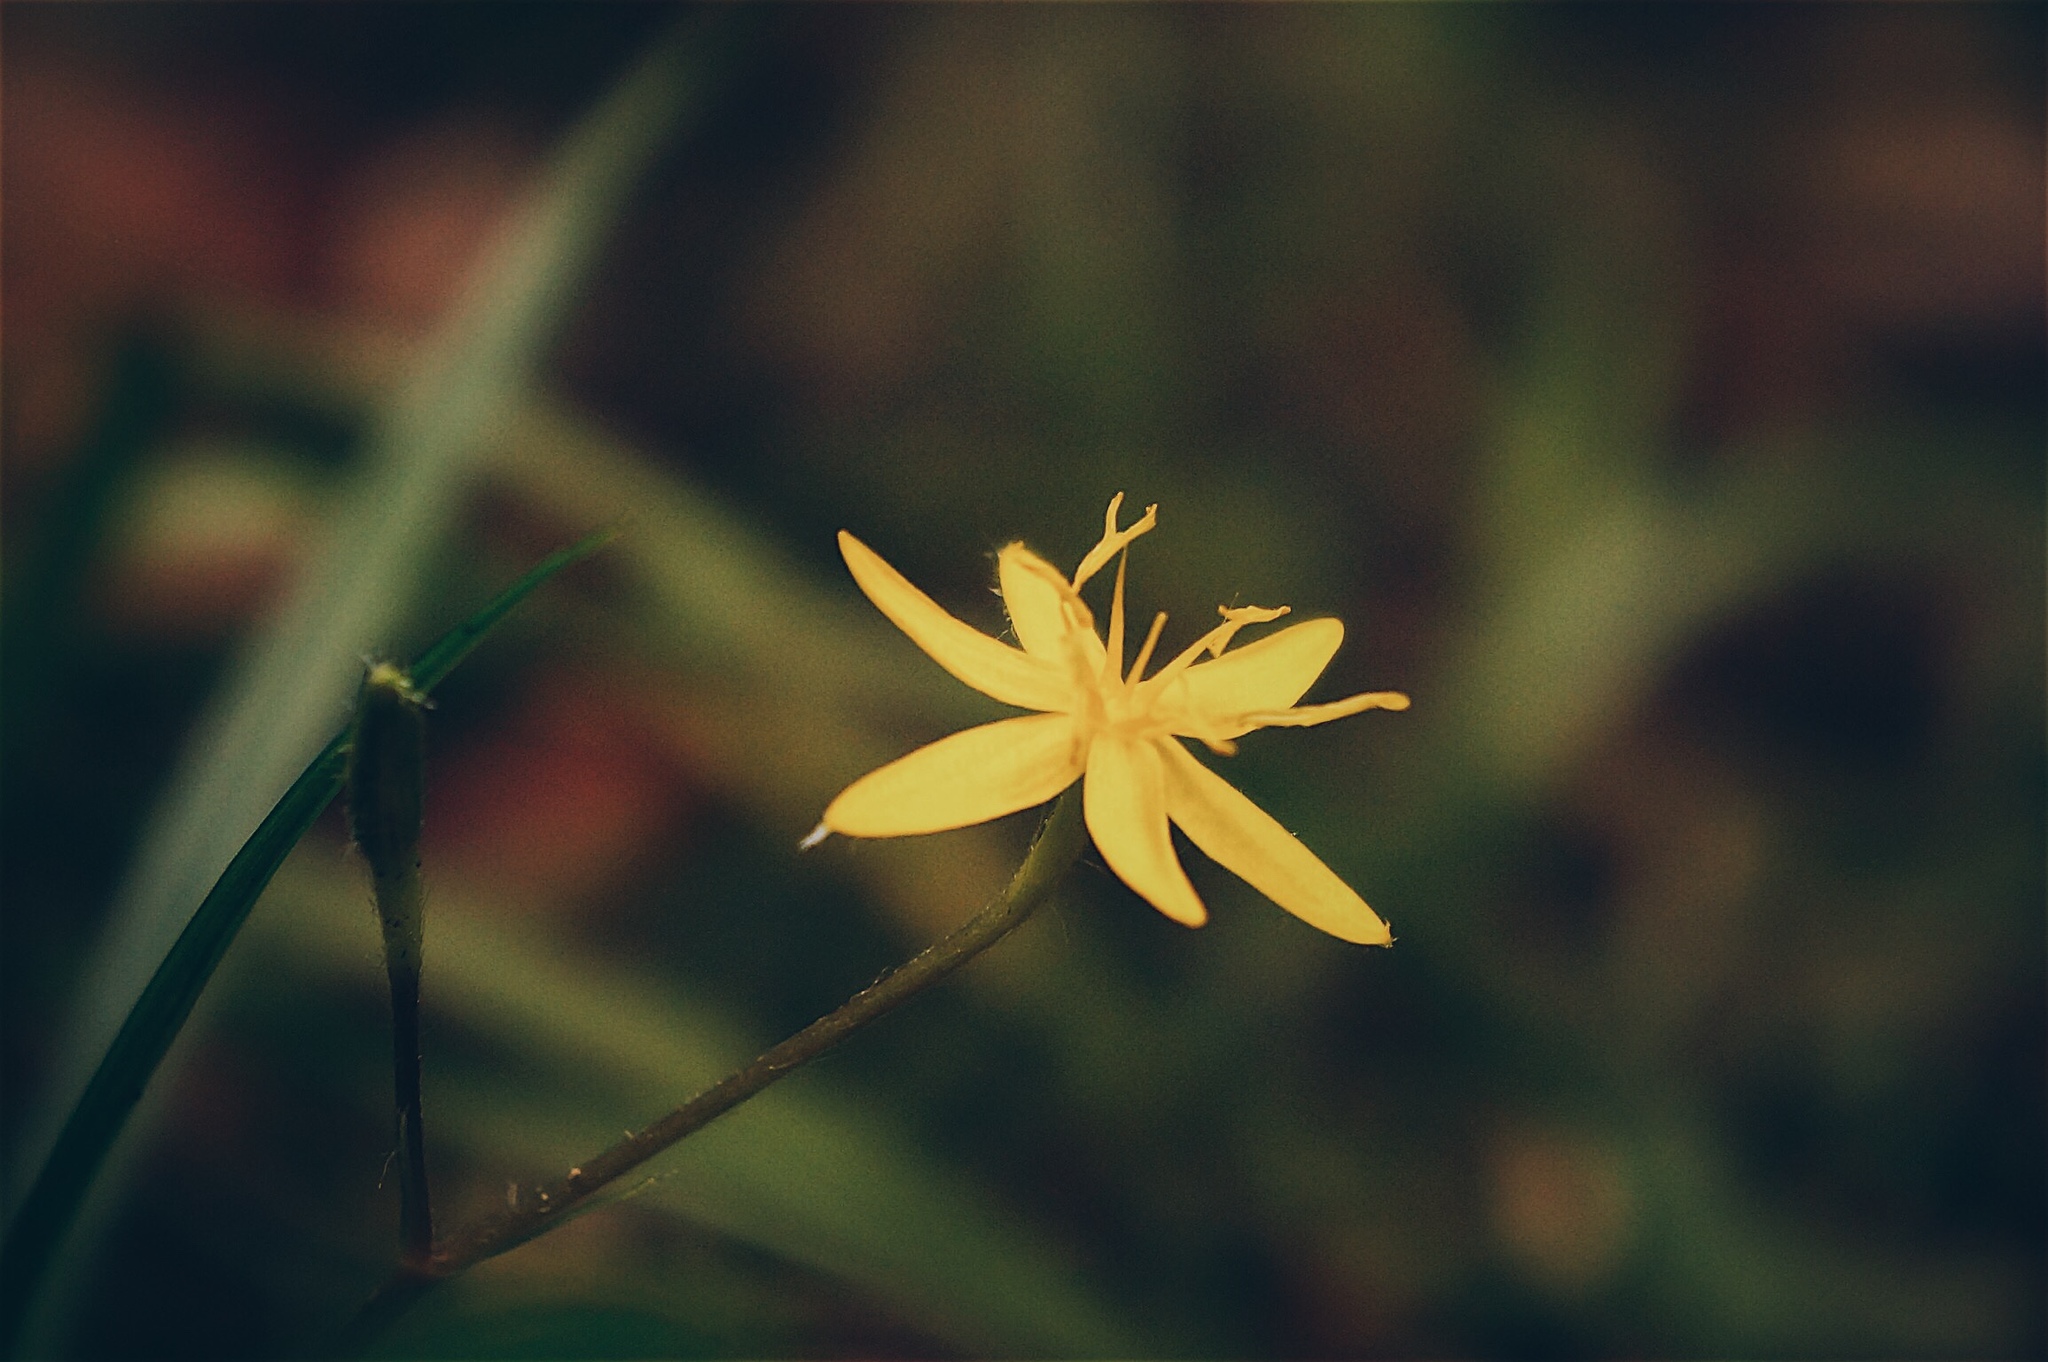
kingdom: Plantae
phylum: Tracheophyta
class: Liliopsida
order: Asparagales
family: Hypoxidaceae
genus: Hypoxis
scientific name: Hypoxis decumbens
